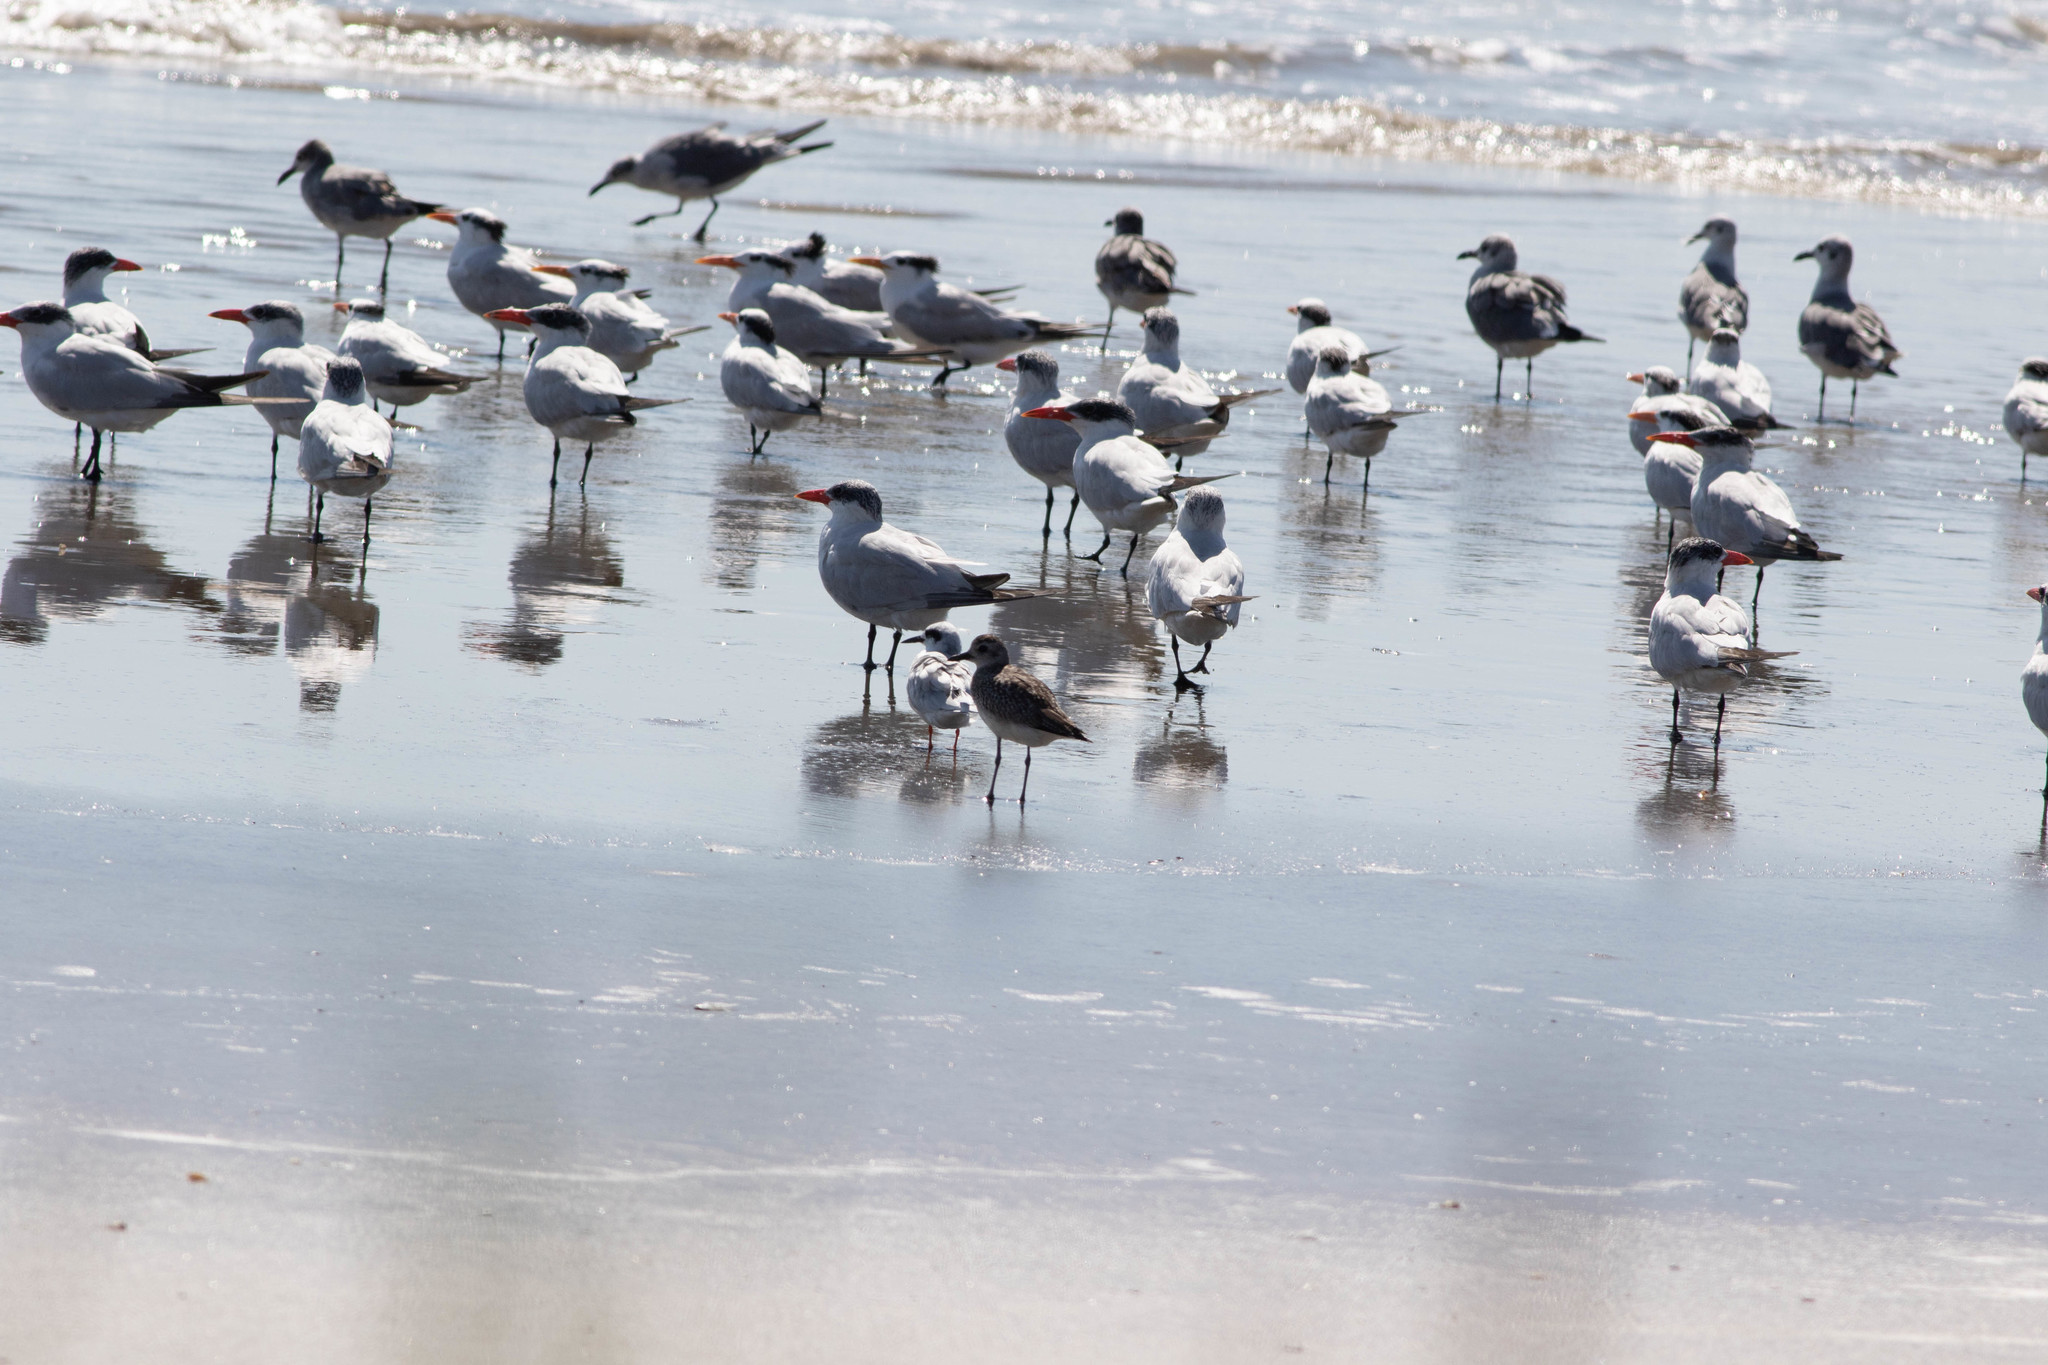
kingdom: Animalia
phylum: Chordata
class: Aves
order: Charadriiformes
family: Laridae
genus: Hydroprogne
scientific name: Hydroprogne caspia
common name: Caspian tern
